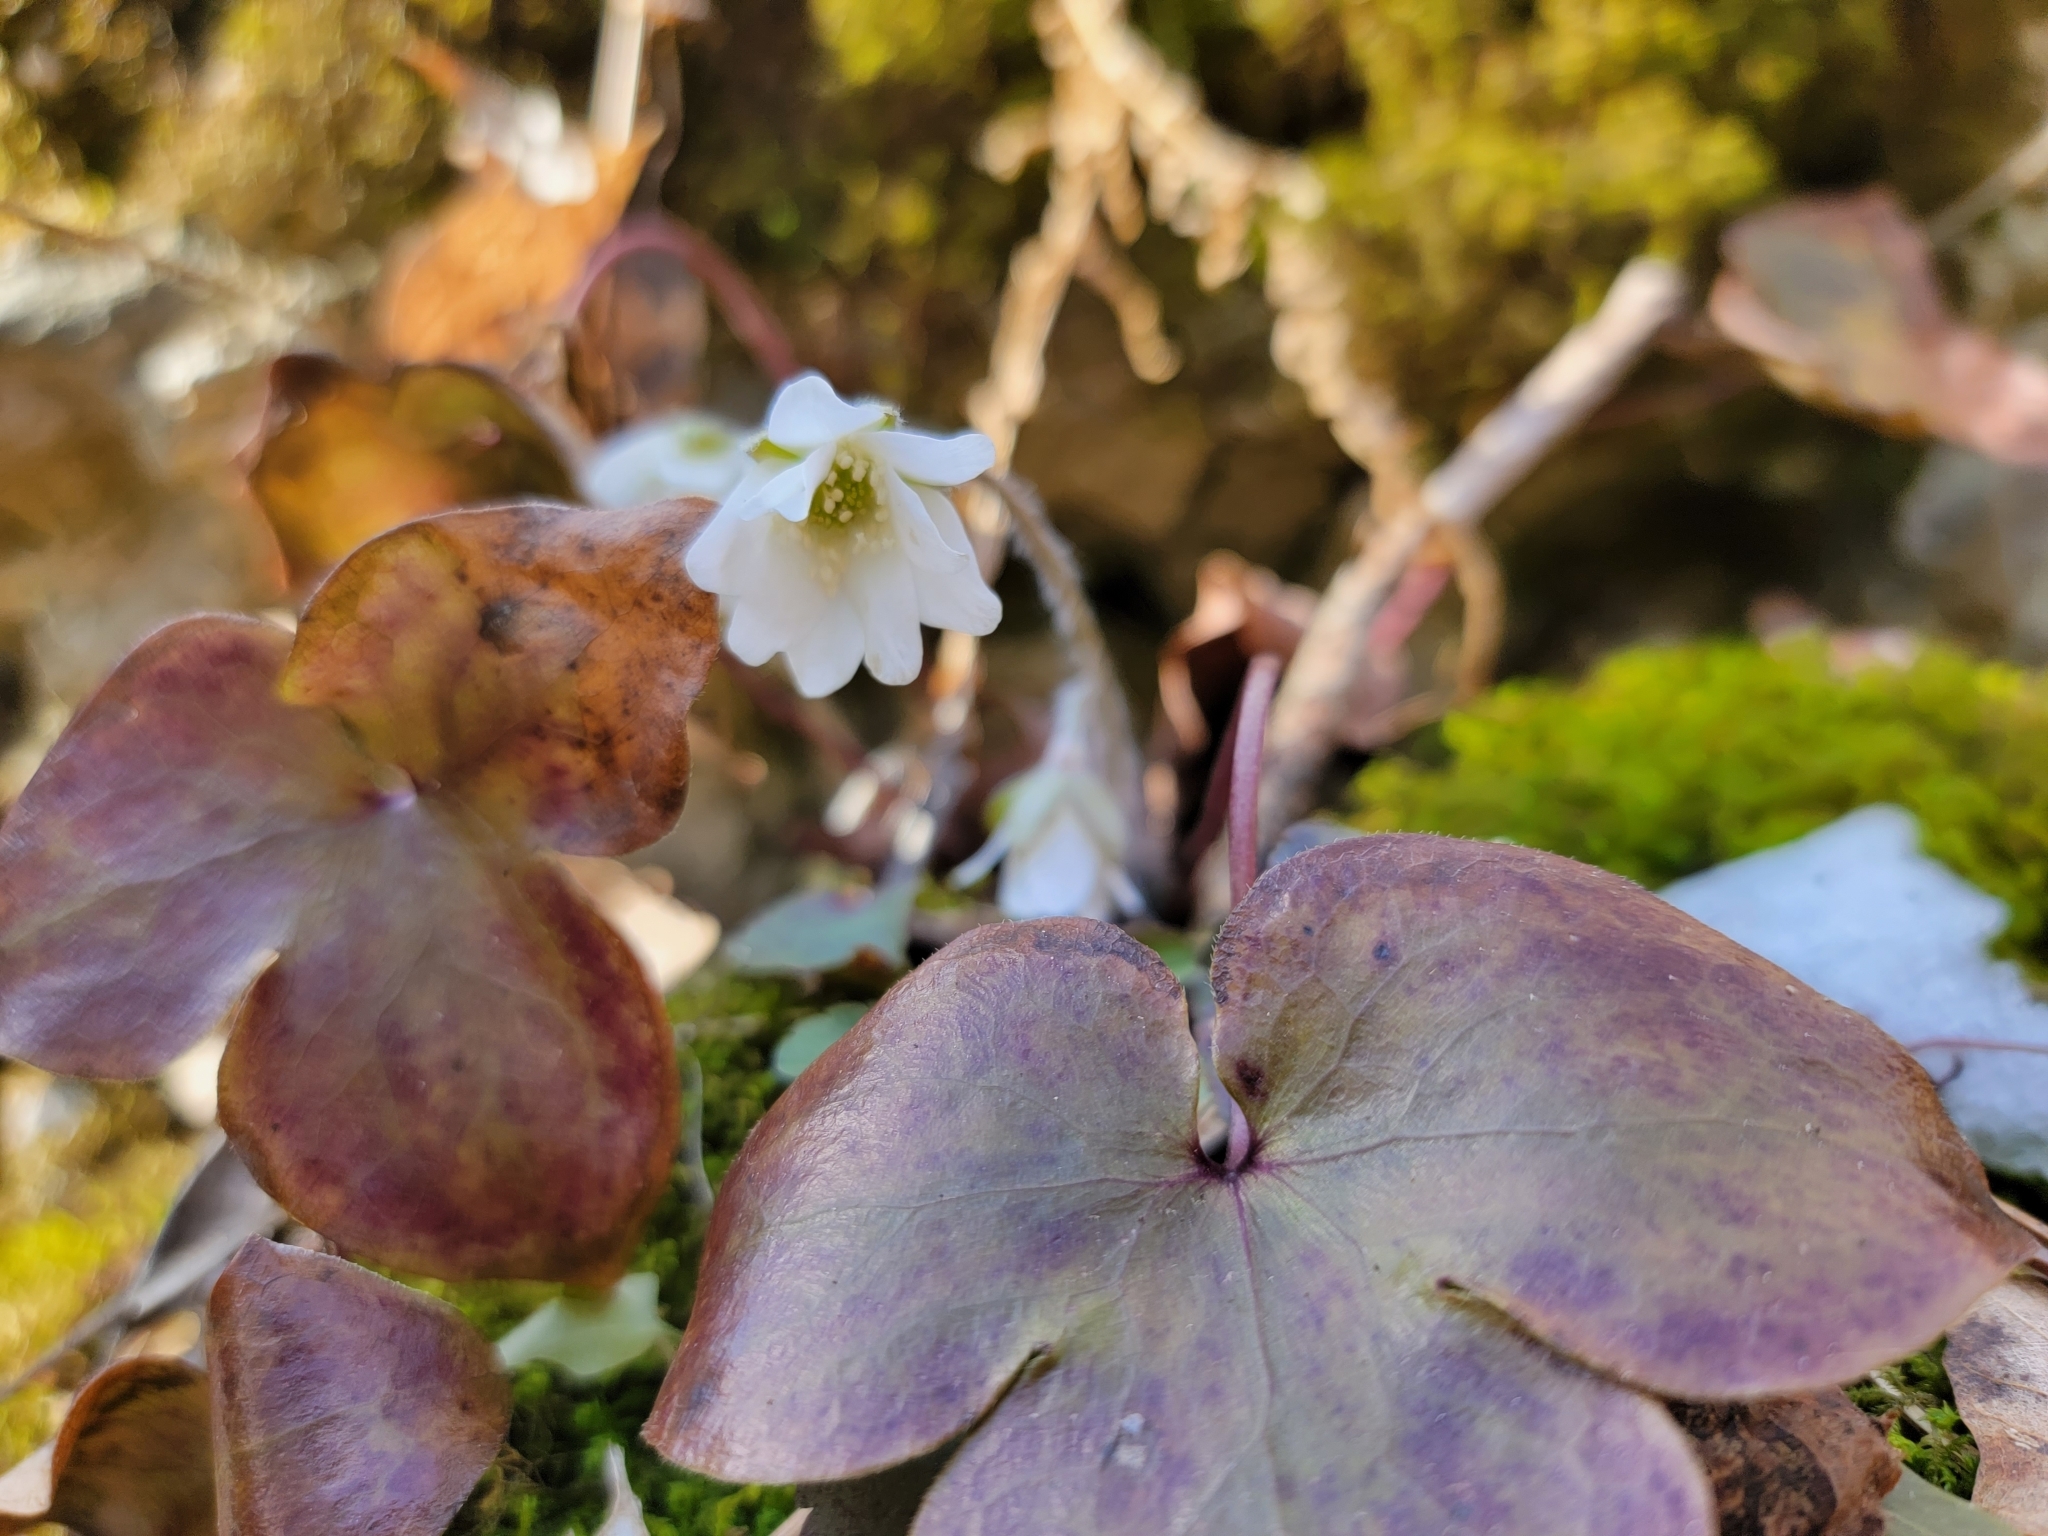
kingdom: Plantae
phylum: Tracheophyta
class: Magnoliopsida
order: Ranunculales
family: Ranunculaceae
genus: Hepatica
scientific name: Hepatica acutiloba
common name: Sharp-lobed hepatica
